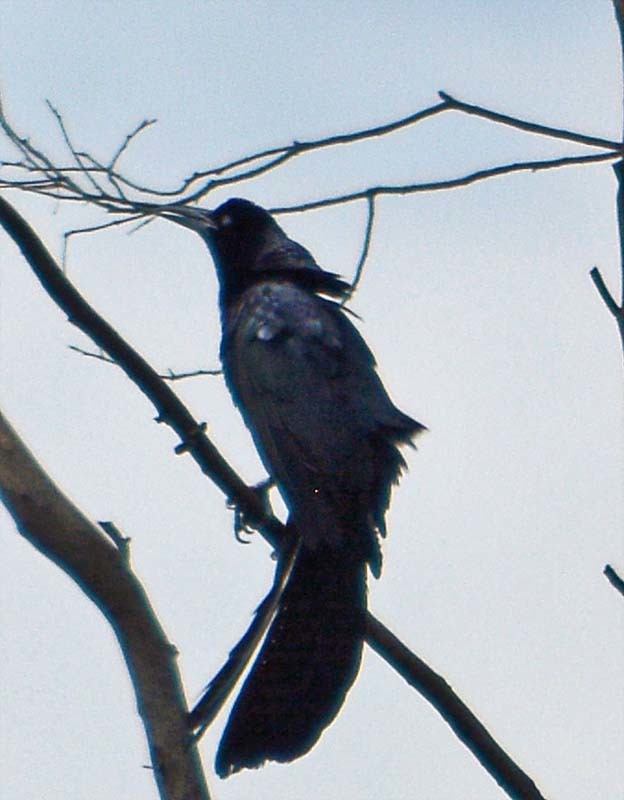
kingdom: Animalia
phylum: Chordata
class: Aves
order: Passeriformes
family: Icteridae
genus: Quiscalus
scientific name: Quiscalus mexicanus
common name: Great-tailed grackle
